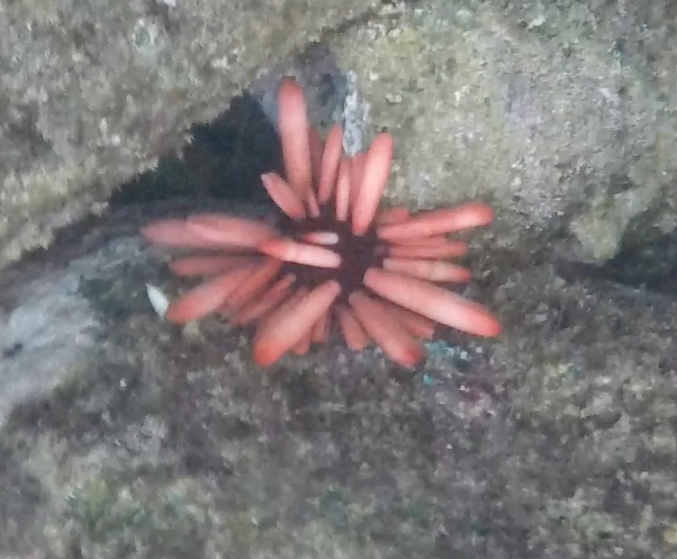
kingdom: Animalia
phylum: Echinodermata
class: Echinoidea
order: Camarodonta
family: Echinometridae
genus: Heterocentrotus
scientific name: Heterocentrotus mamillatus
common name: Slate pencil urchin
